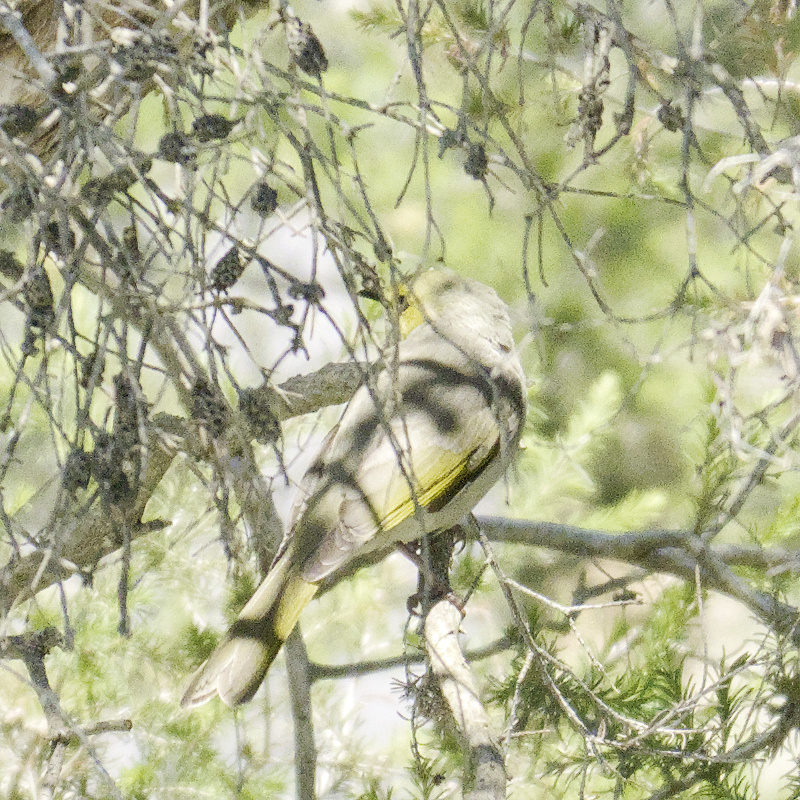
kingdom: Animalia
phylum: Chordata
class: Aves
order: Passeriformes
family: Meliphagidae
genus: Ptilotula
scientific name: Ptilotula penicillata
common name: White-plumed honeyeater
